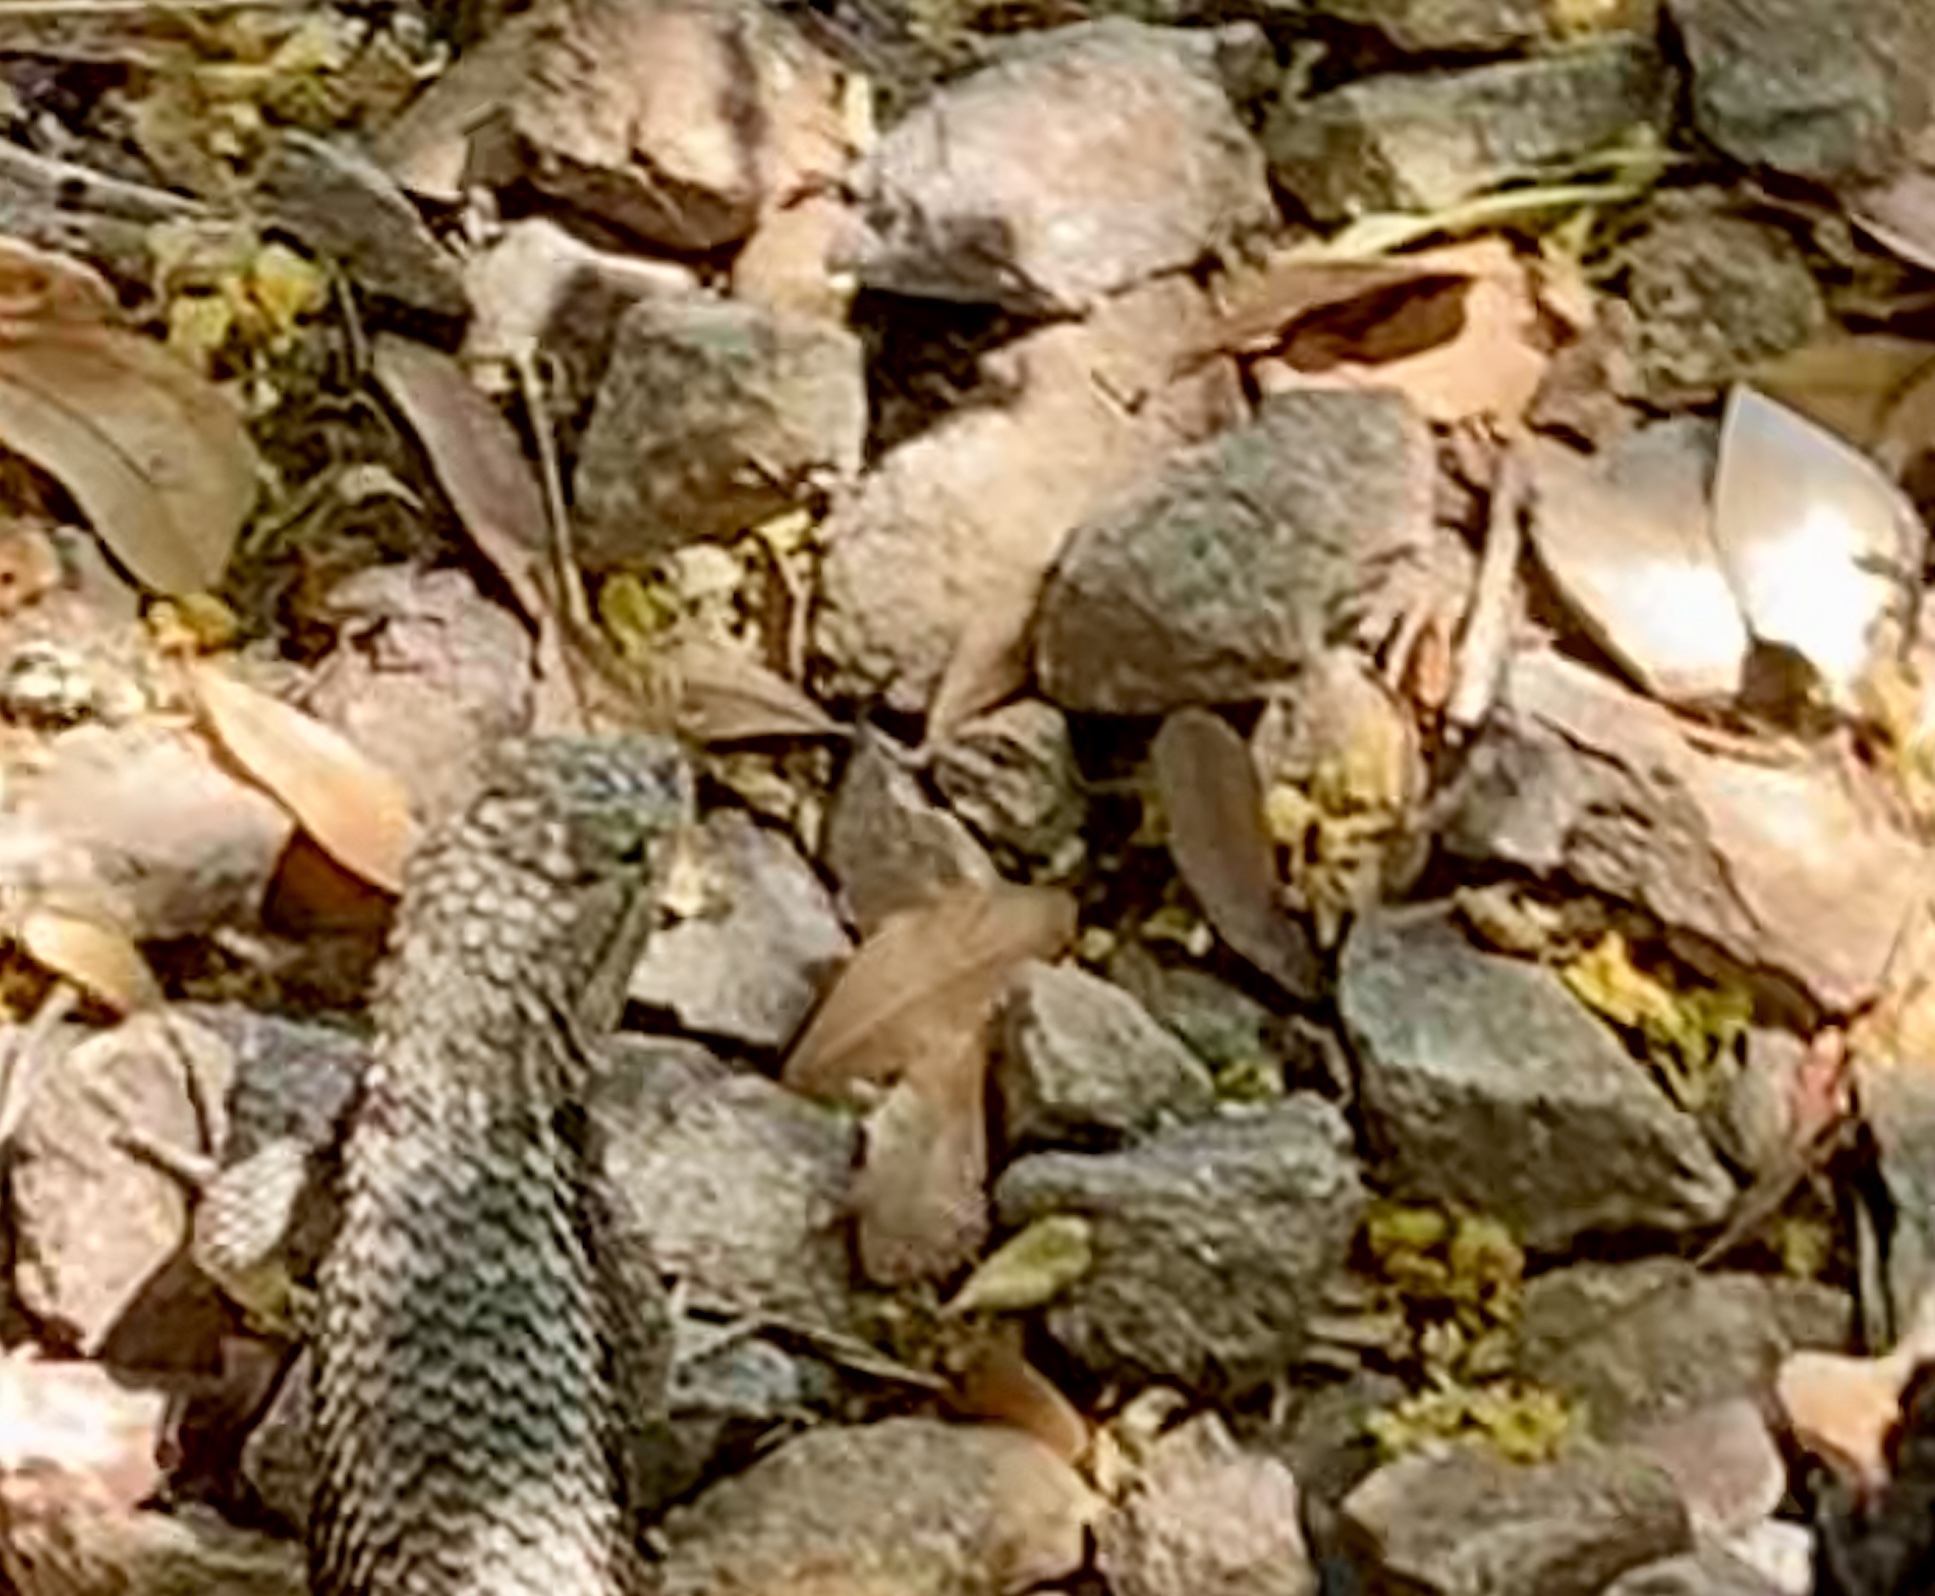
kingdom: Animalia
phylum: Chordata
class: Squamata
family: Phrynosomatidae
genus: Sceloporus
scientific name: Sceloporus uniformis
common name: Yellow-backed spiny lizard
